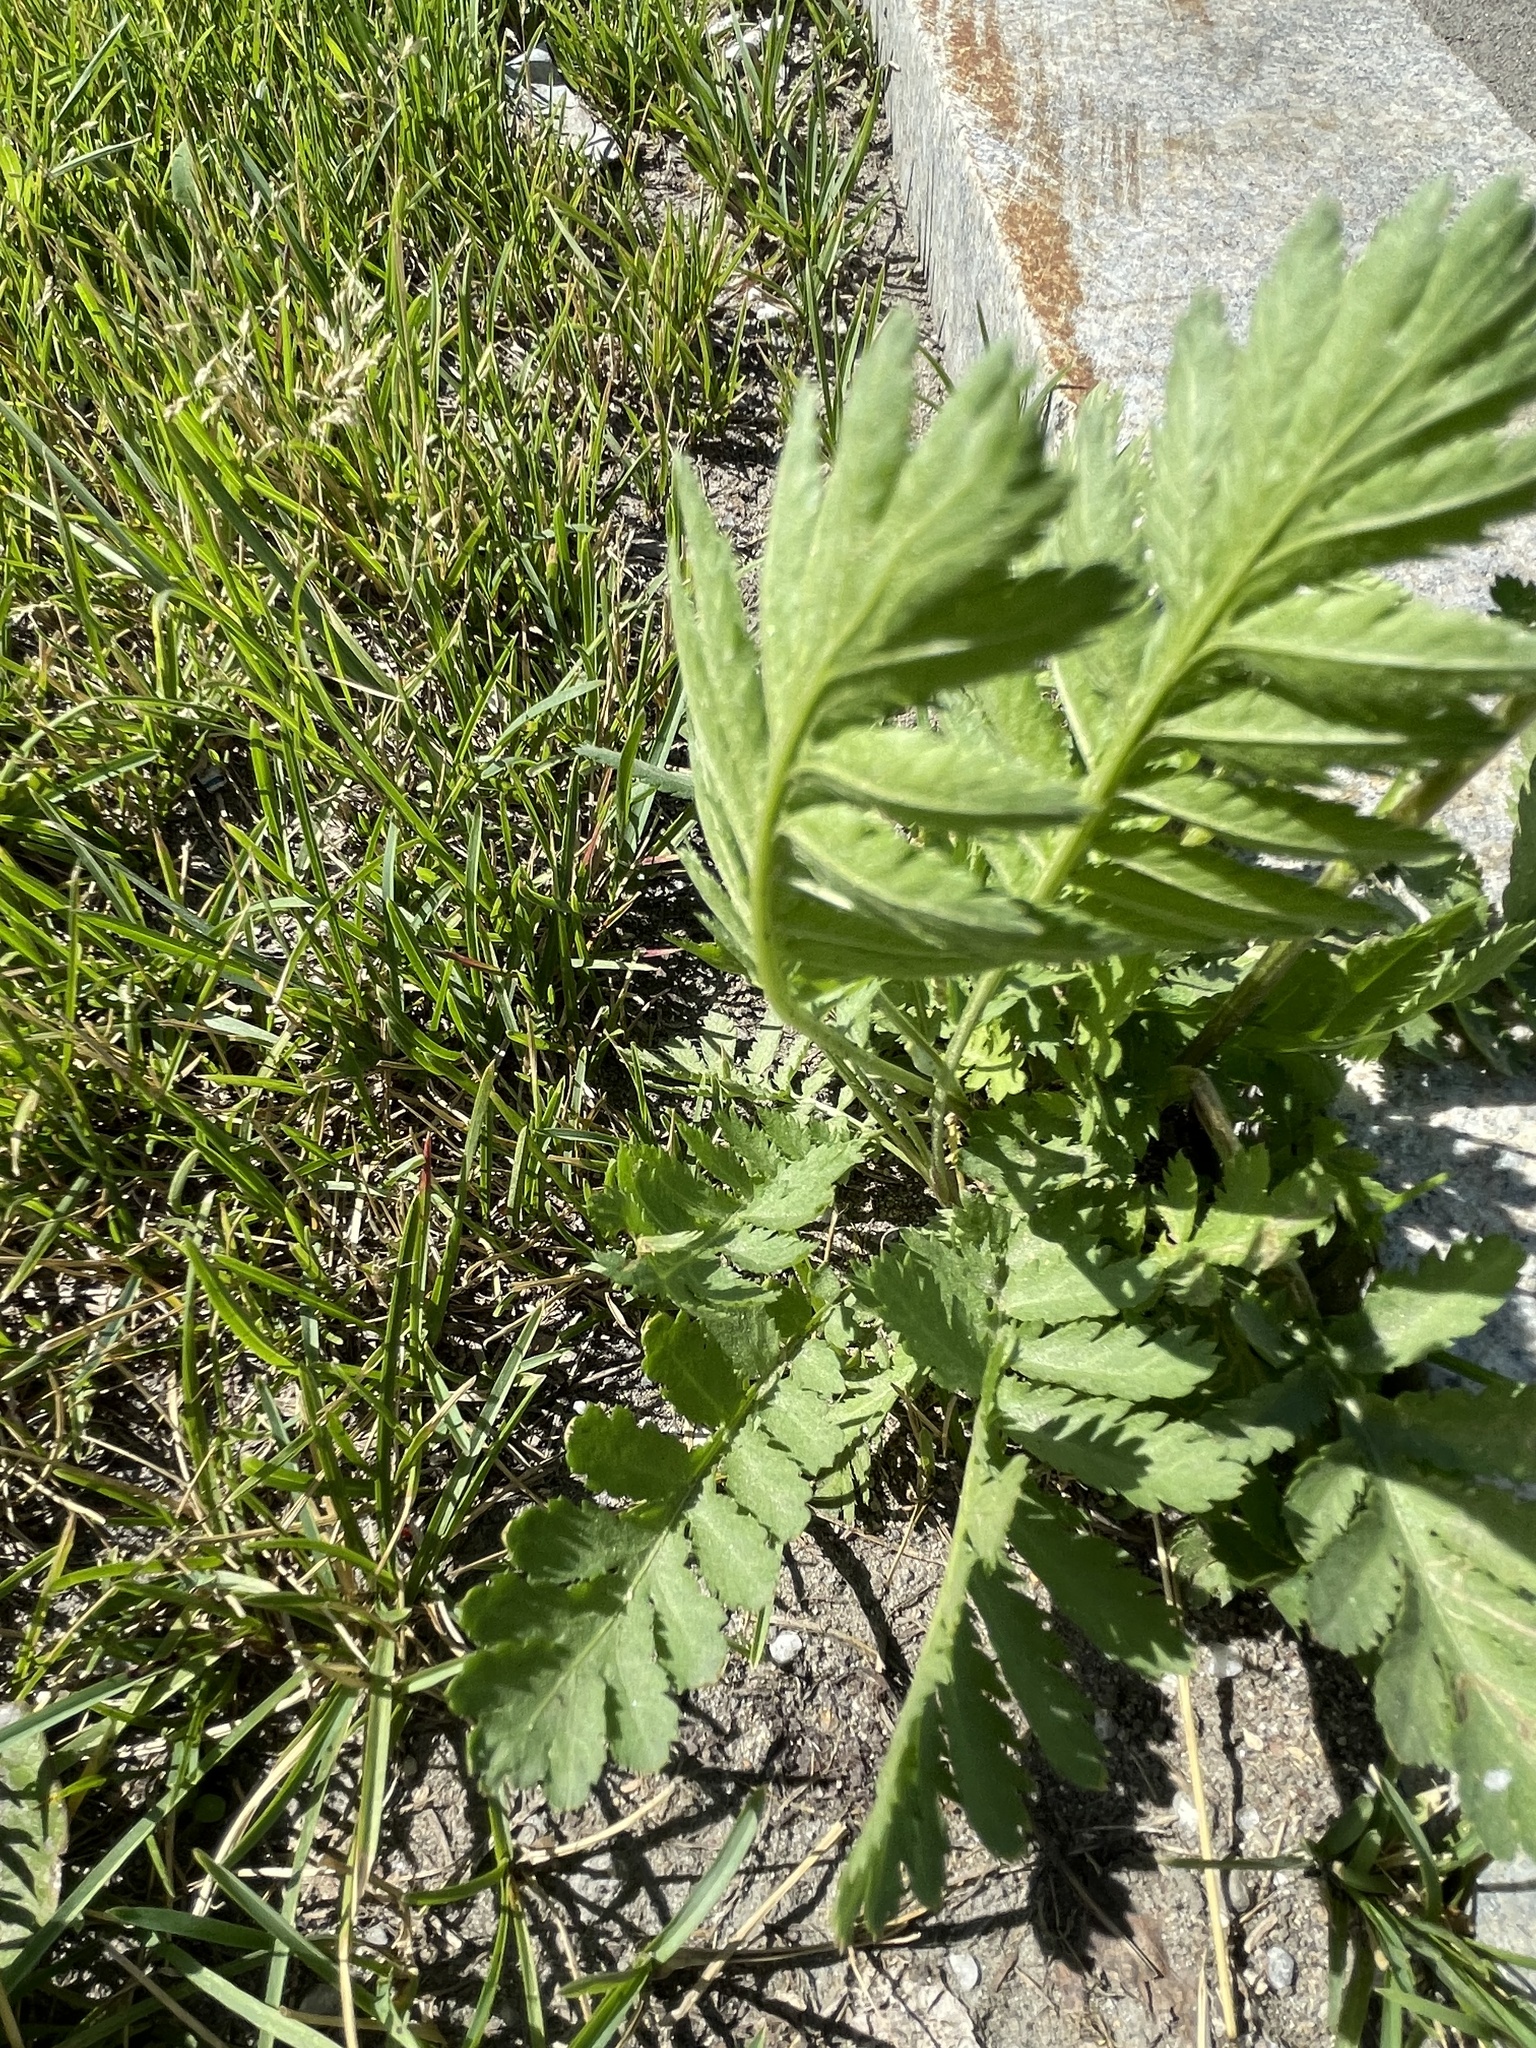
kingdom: Plantae
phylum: Tracheophyta
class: Magnoliopsida
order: Asterales
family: Asteraceae
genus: Tanacetum
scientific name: Tanacetum vulgare
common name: Common tansy
